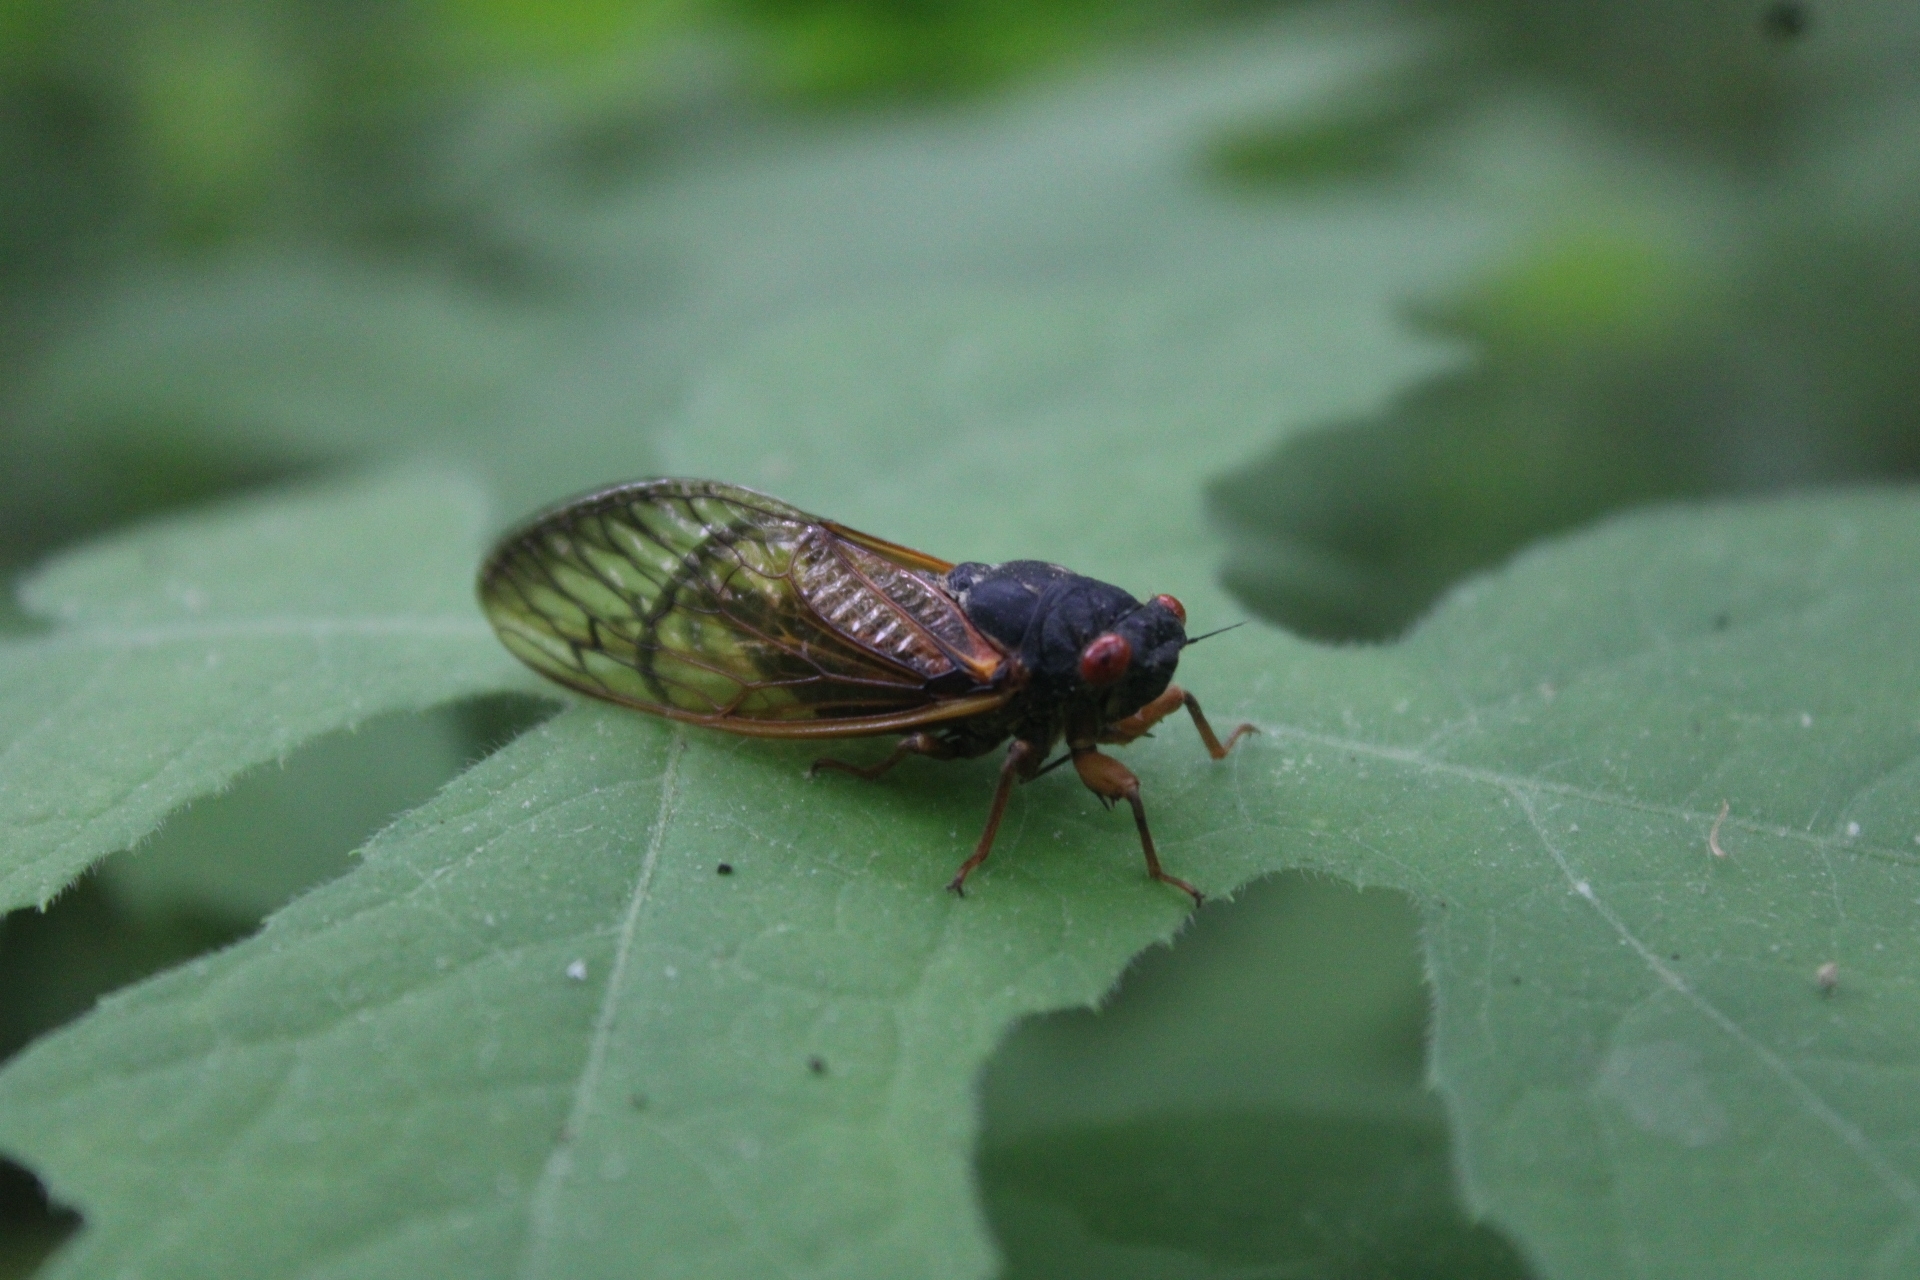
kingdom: Animalia
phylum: Arthropoda
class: Insecta
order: Hemiptera
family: Cicadidae
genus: Magicicada
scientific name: Magicicada
